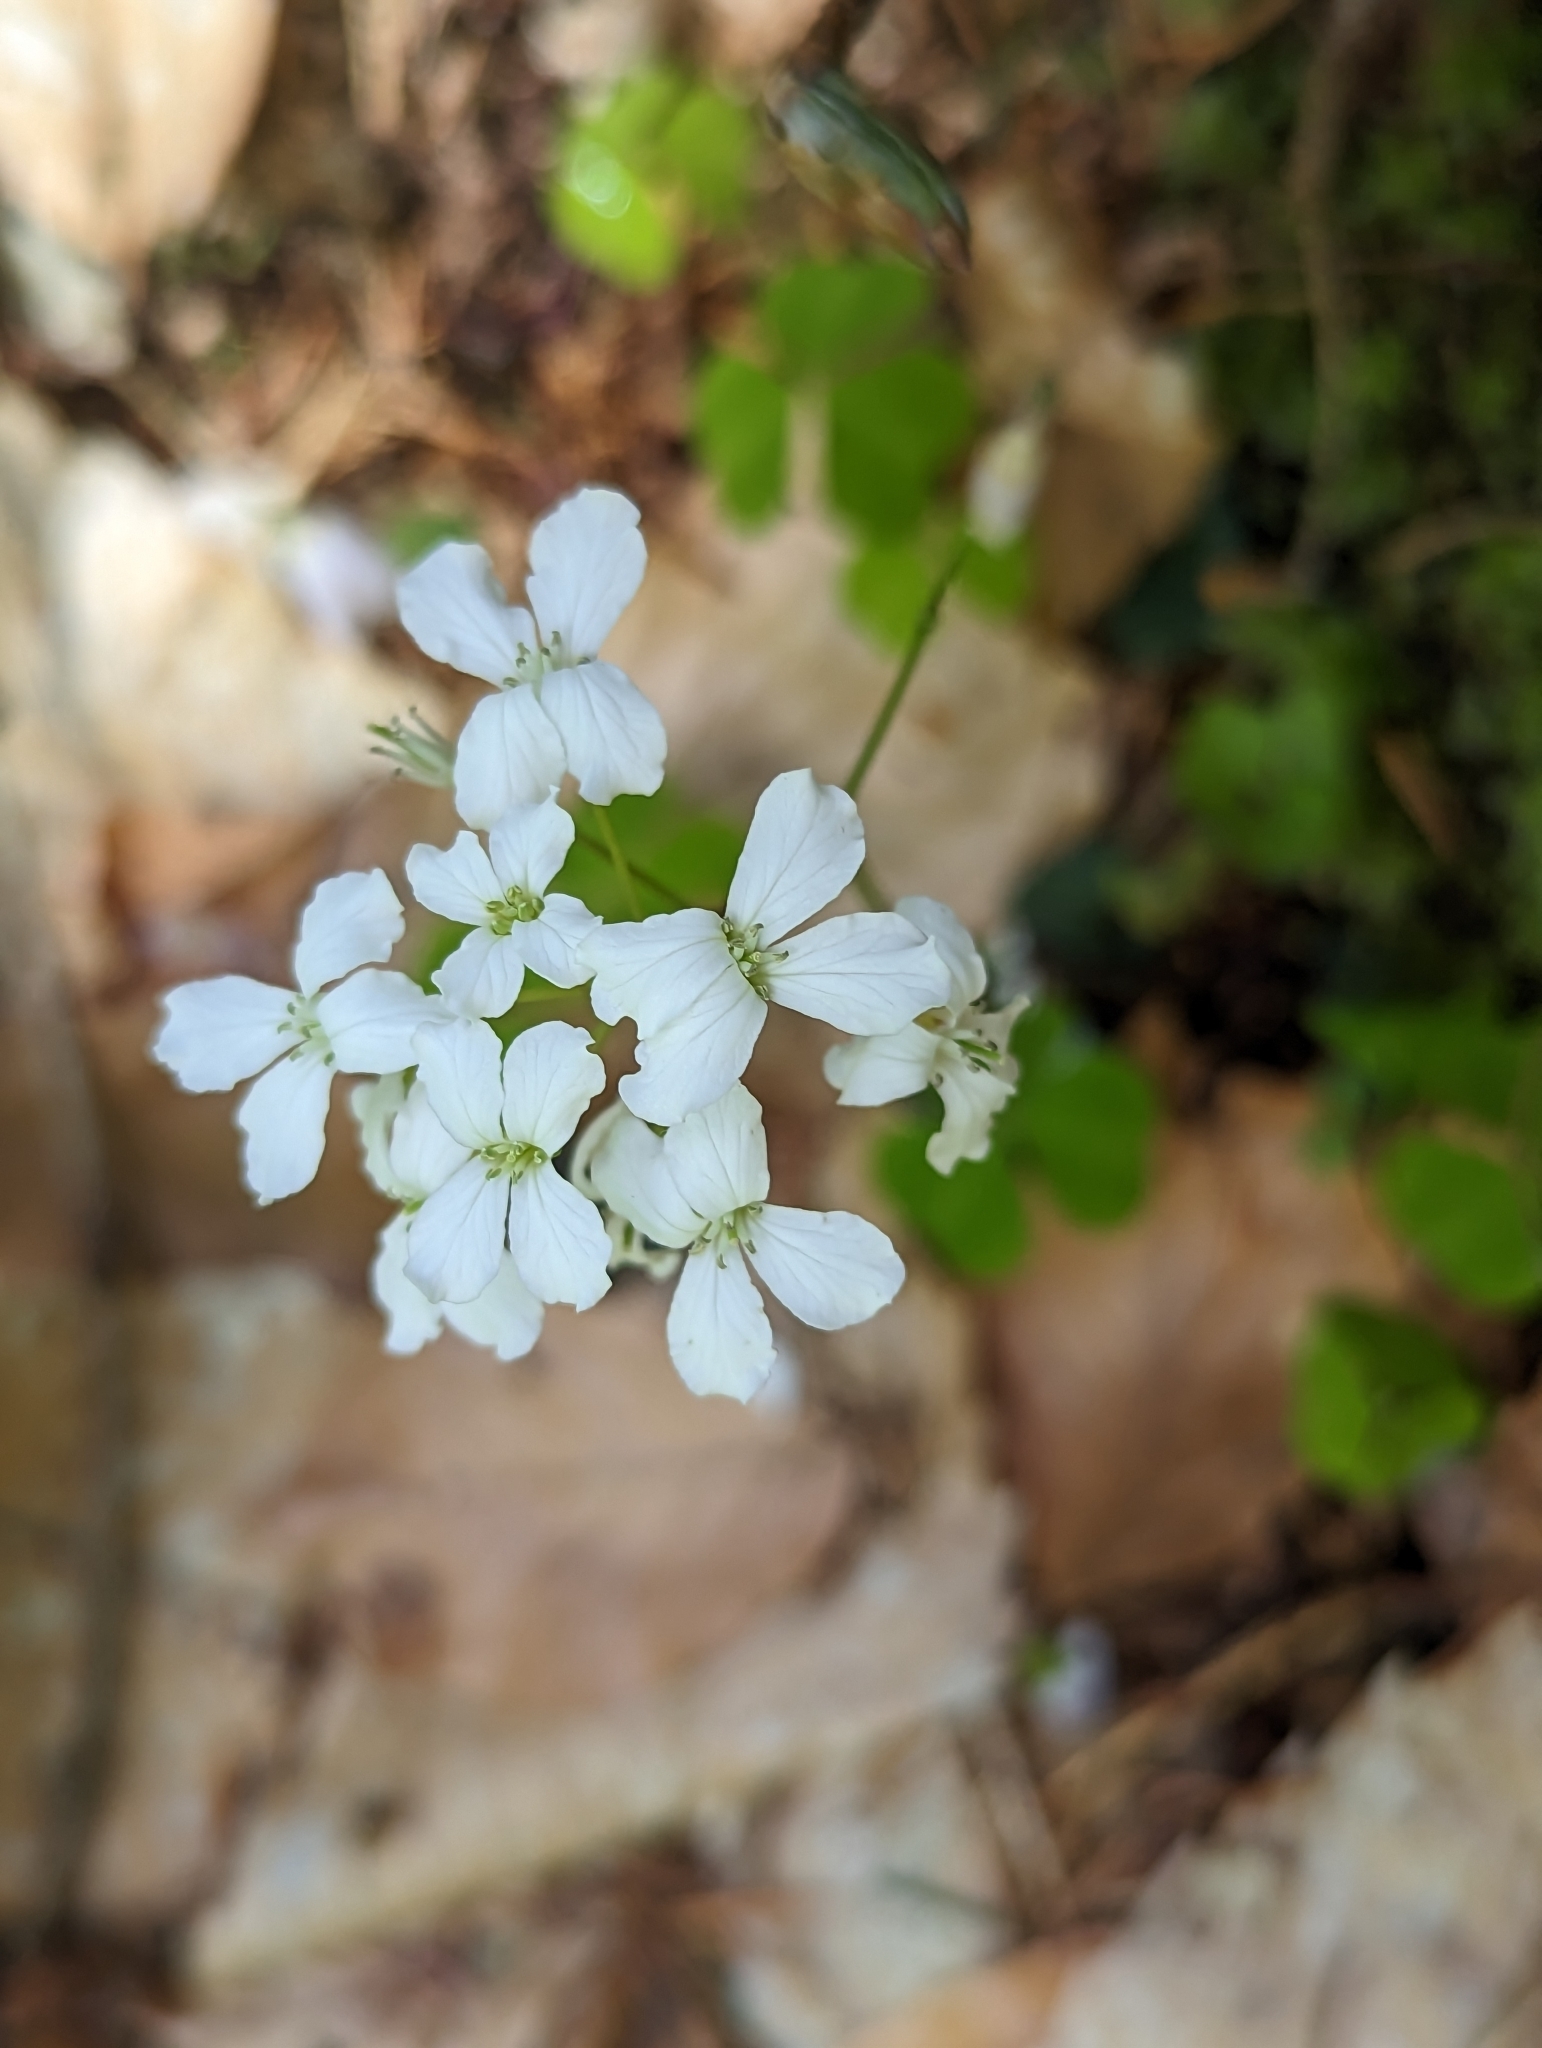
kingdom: Plantae
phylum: Tracheophyta
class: Magnoliopsida
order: Brassicales
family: Brassicaceae
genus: Cardamine
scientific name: Cardamine trifolia
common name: Trefoil cress
